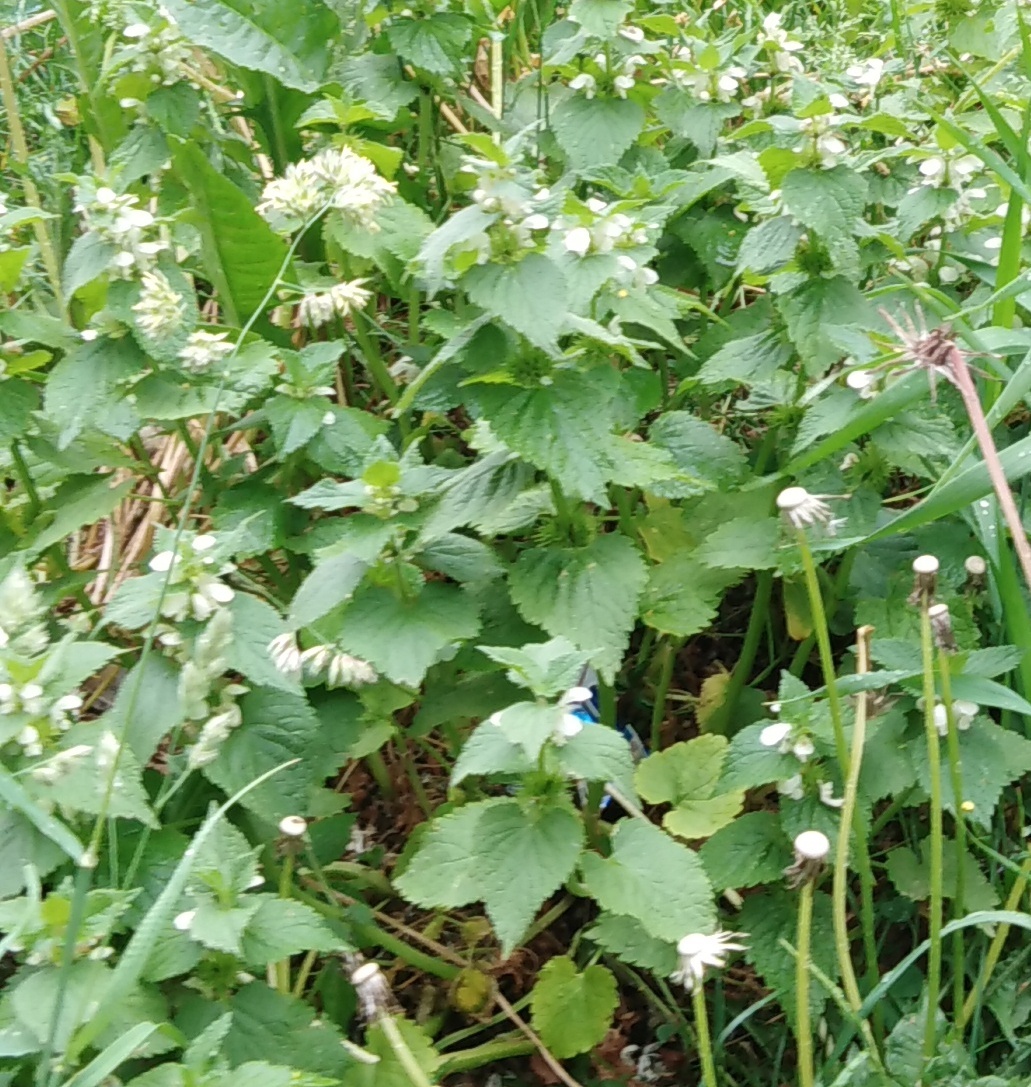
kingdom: Plantae
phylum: Tracheophyta
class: Magnoliopsida
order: Lamiales
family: Lamiaceae
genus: Lamium
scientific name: Lamium album
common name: White dead-nettle
